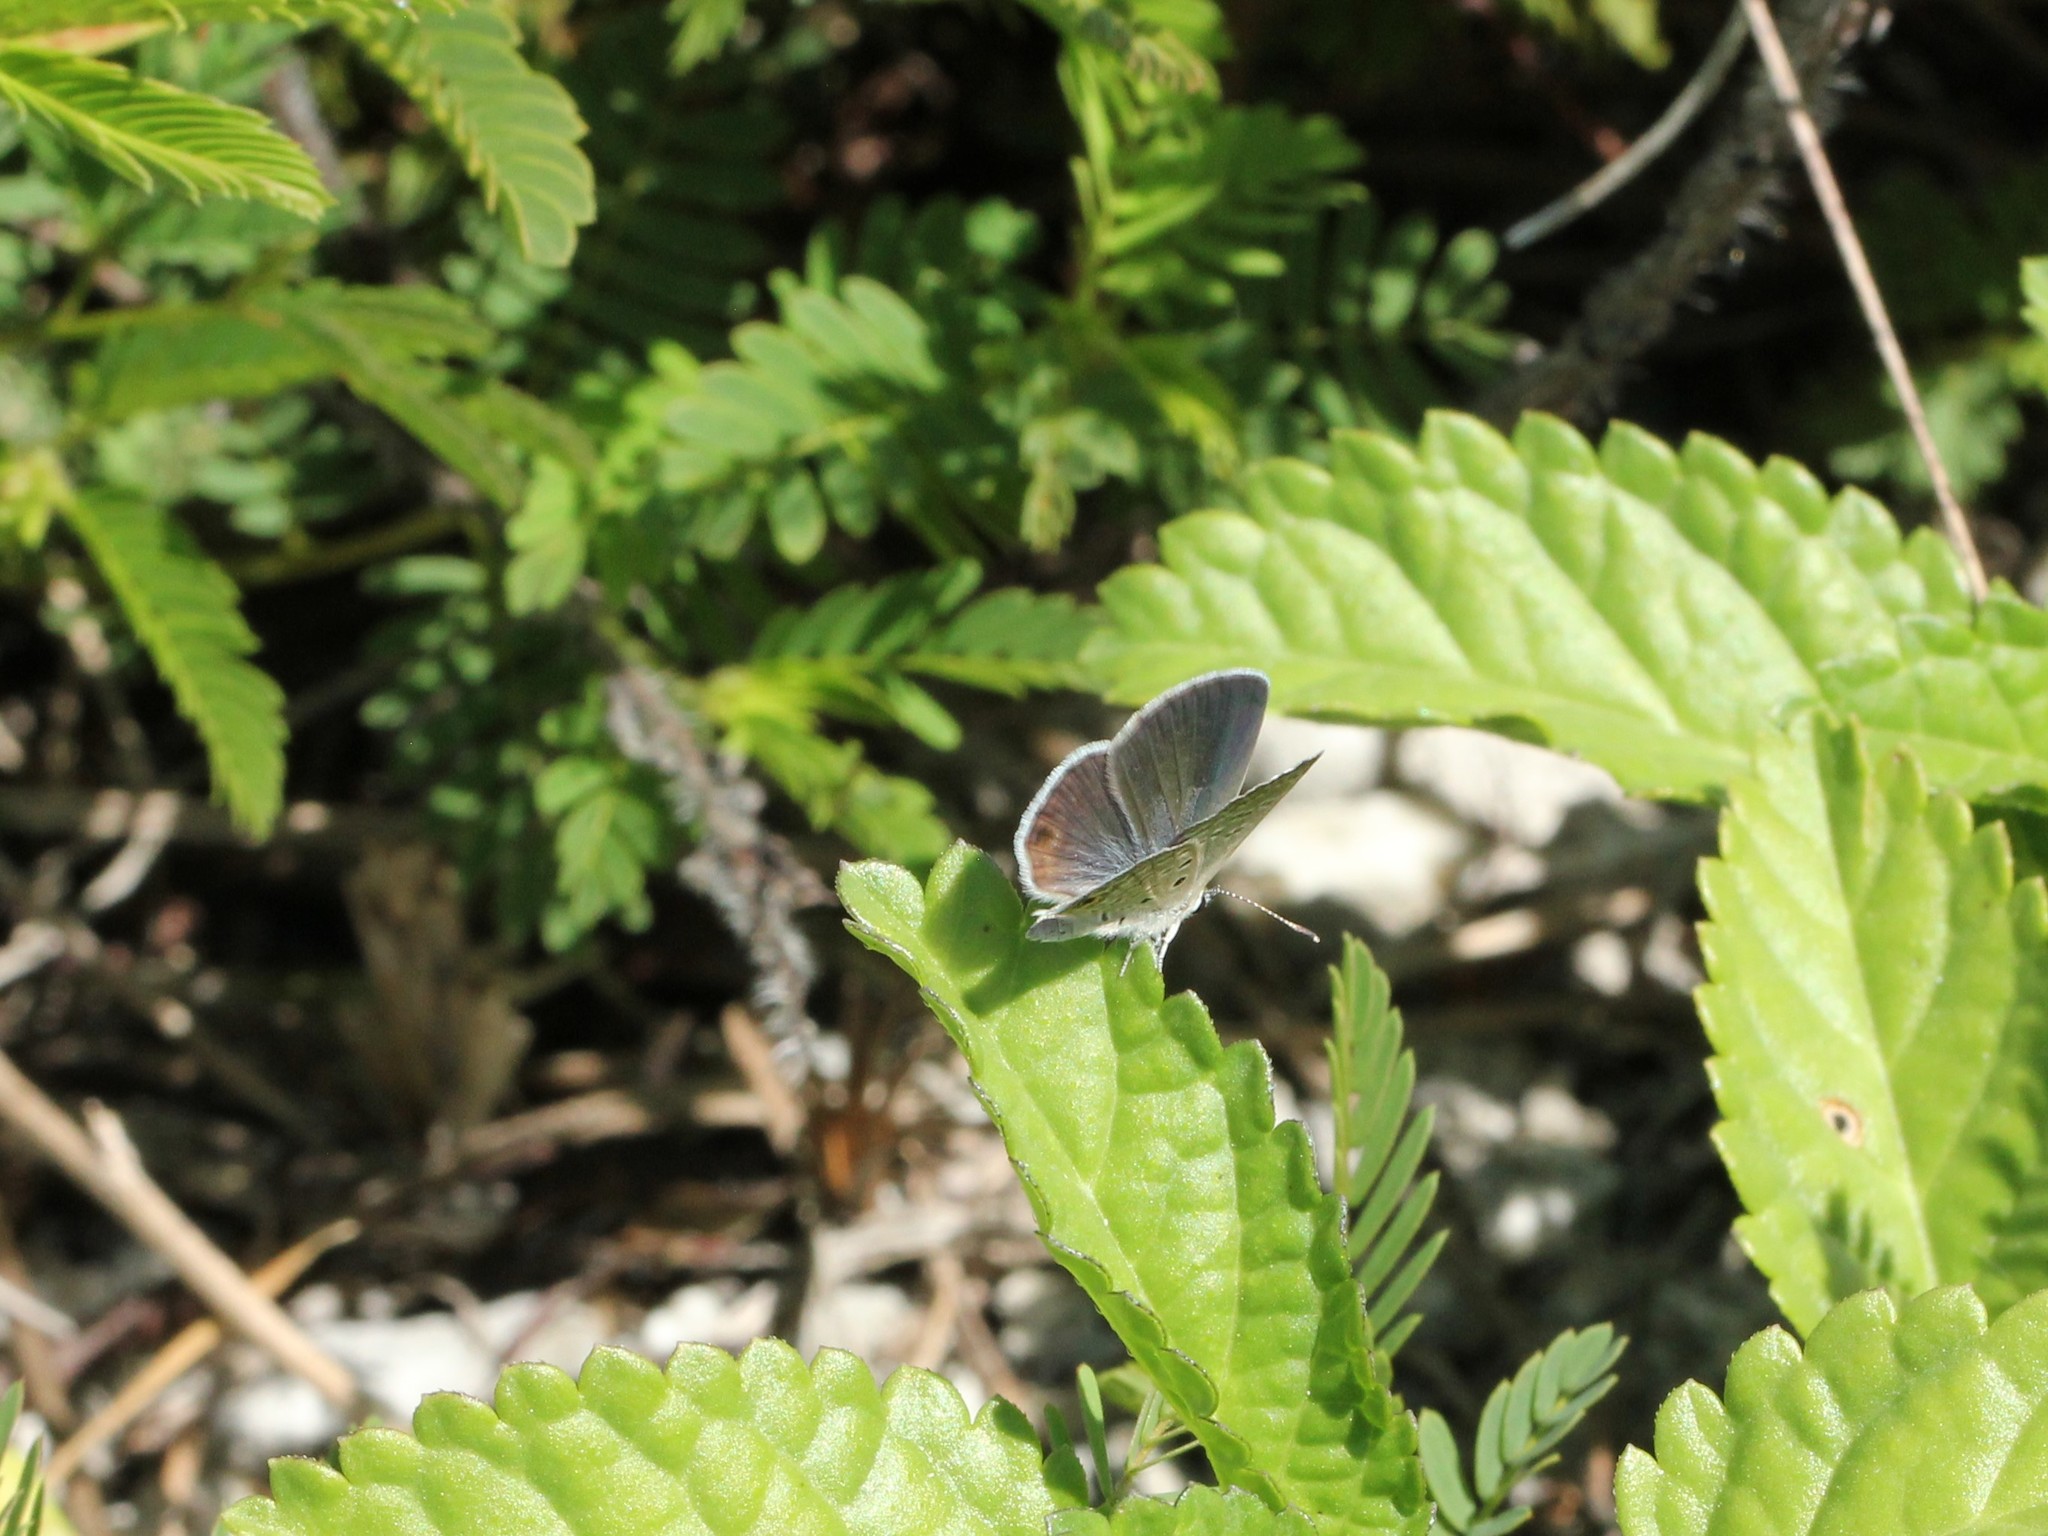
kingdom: Animalia
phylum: Arthropoda
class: Insecta
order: Lepidoptera
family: Lycaenidae
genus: Hemiargus
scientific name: Hemiargus ceraunus
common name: Ceraunus blue
